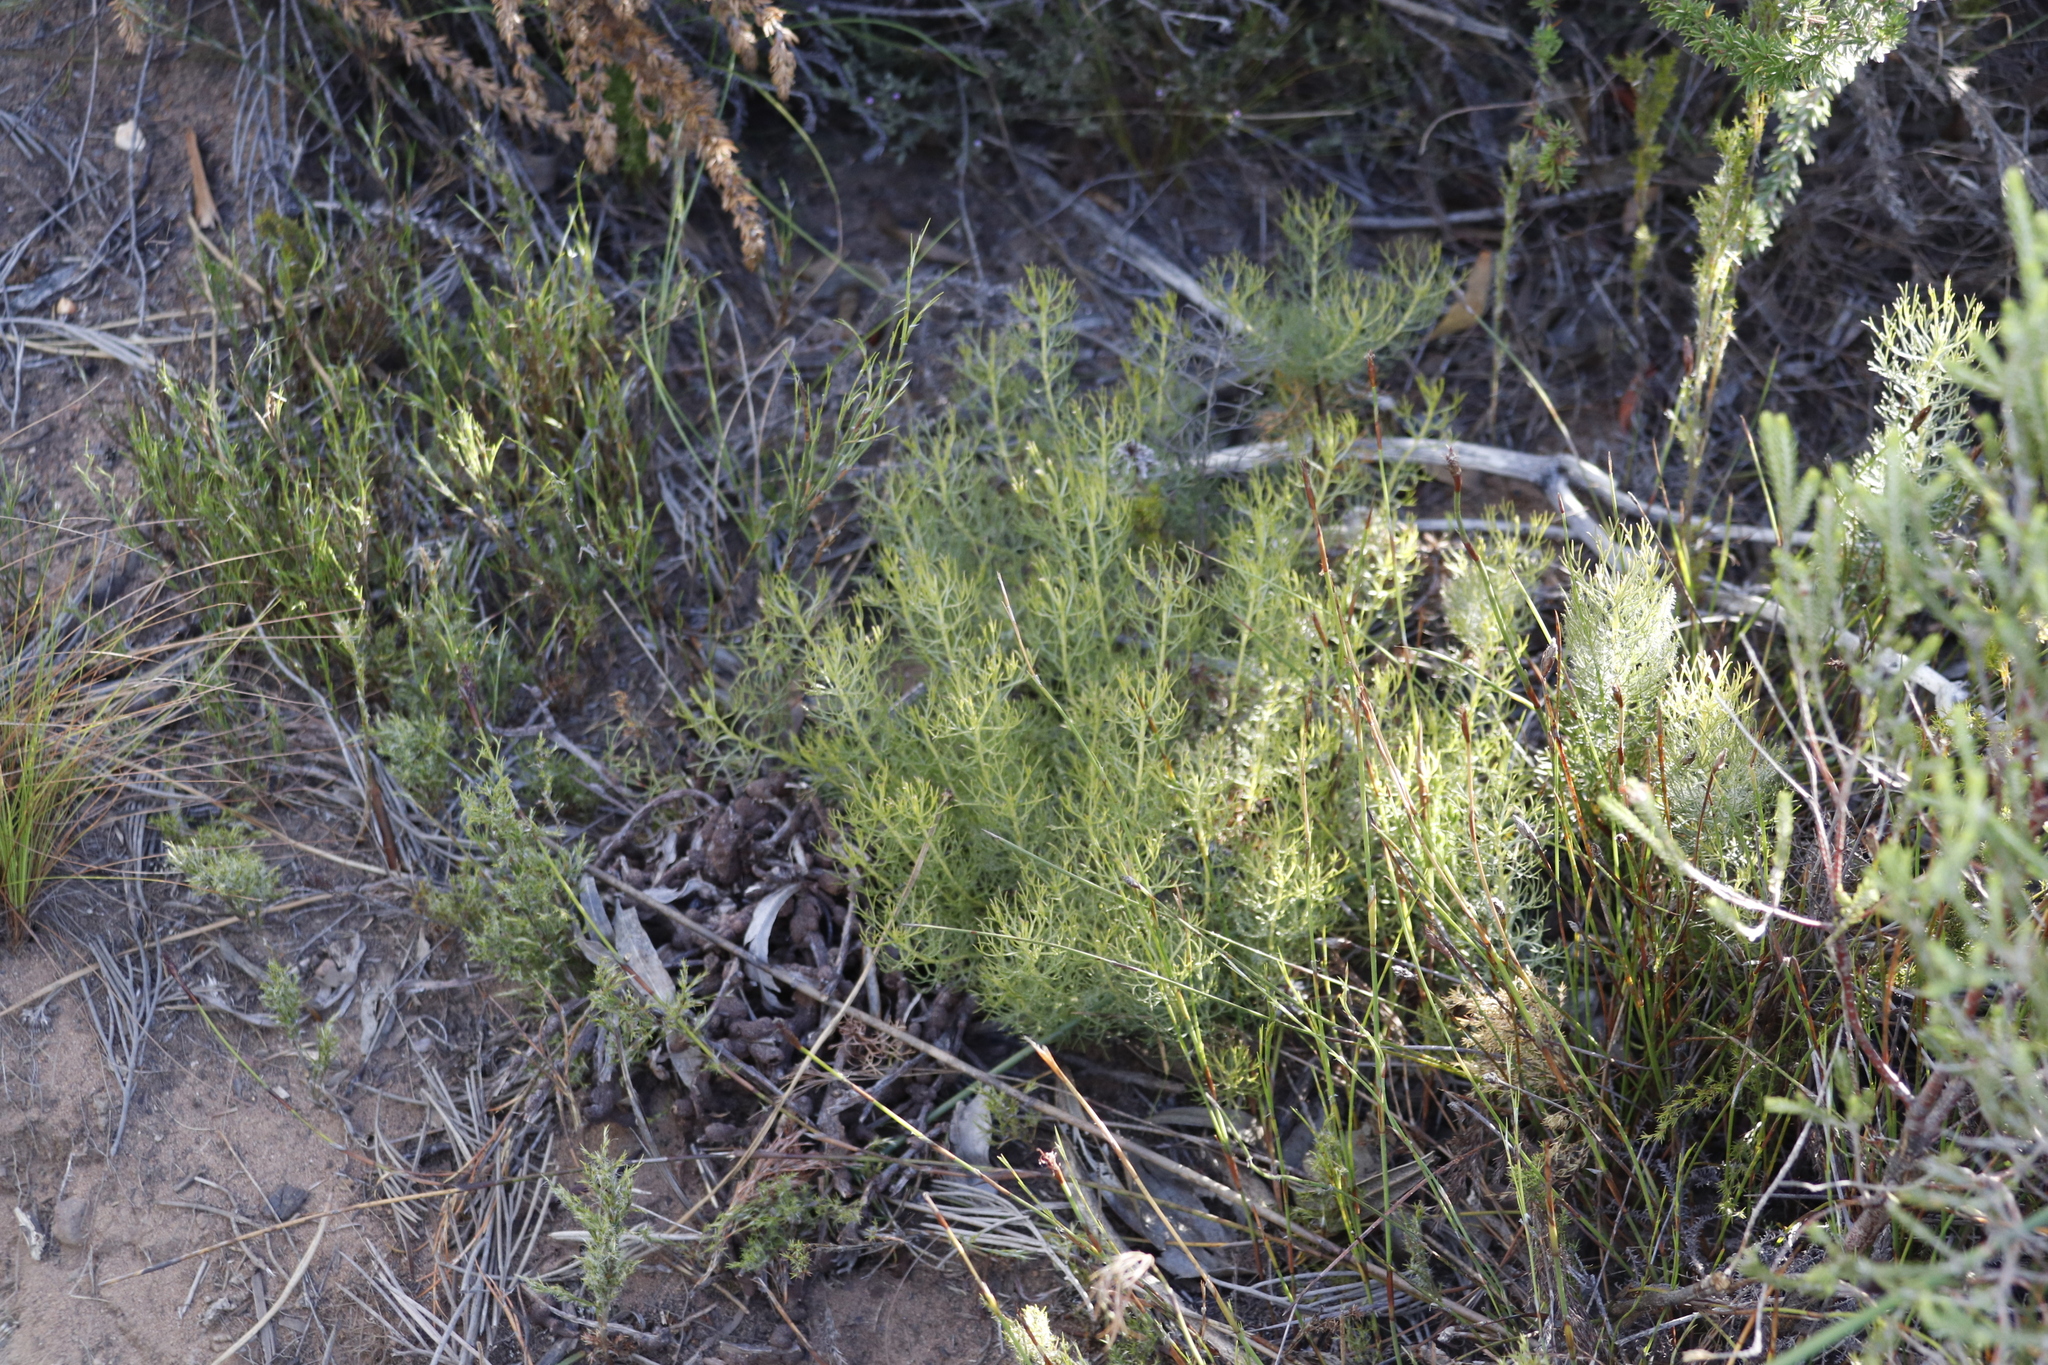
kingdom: Plantae
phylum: Tracheophyta
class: Magnoliopsida
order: Proteales
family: Proteaceae
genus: Serruria
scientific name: Serruria cyanoides
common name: Wynberg spiderhead
